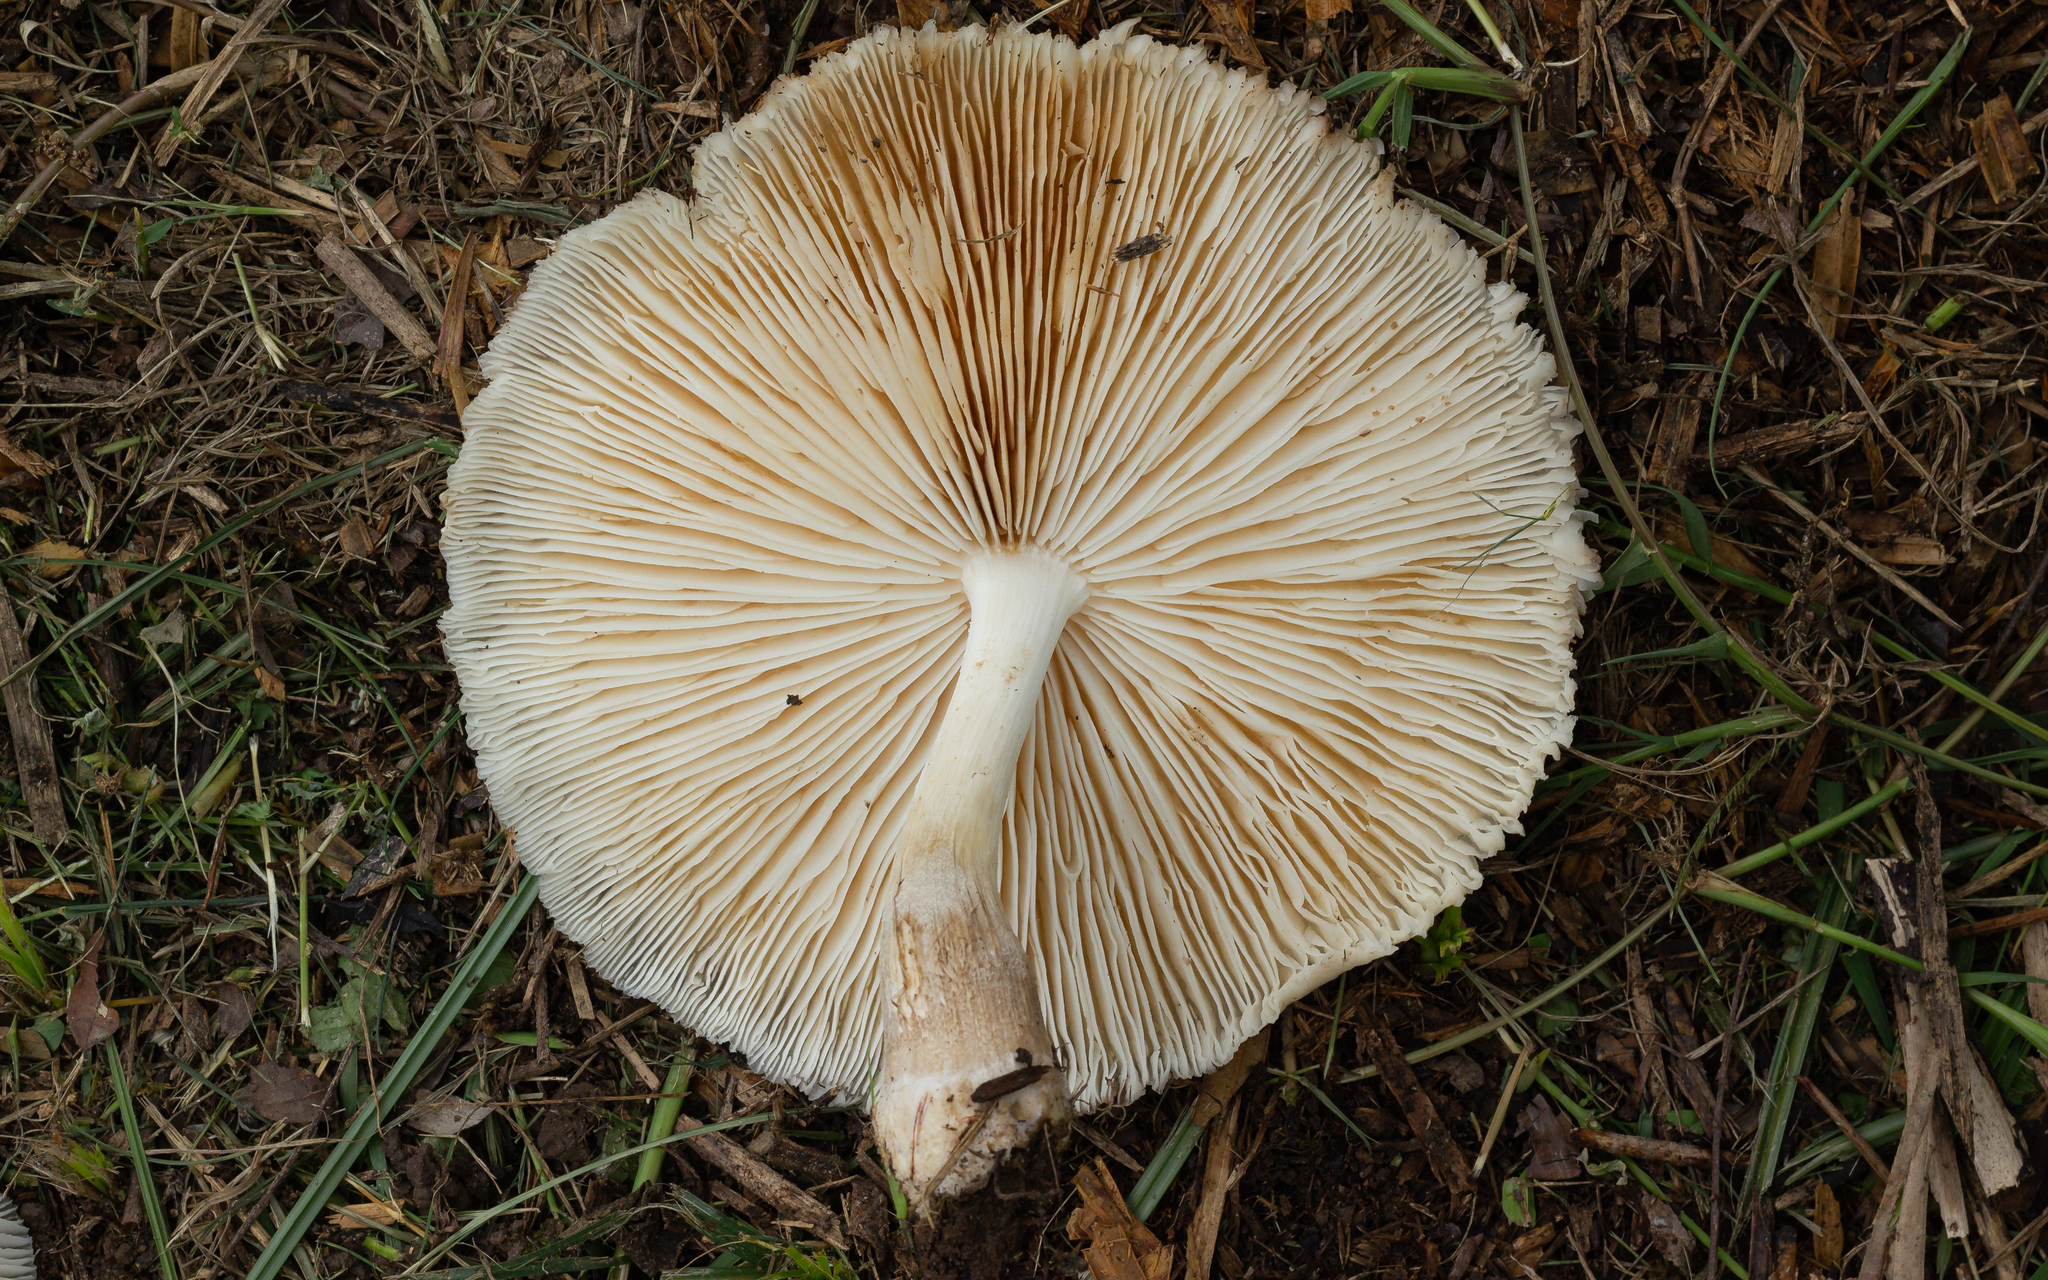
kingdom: Fungi
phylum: Basidiomycota
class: Agaricomycetes
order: Agaricales
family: Physalacriaceae
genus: Oudemansiella
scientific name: Oudemansiella cubensis
